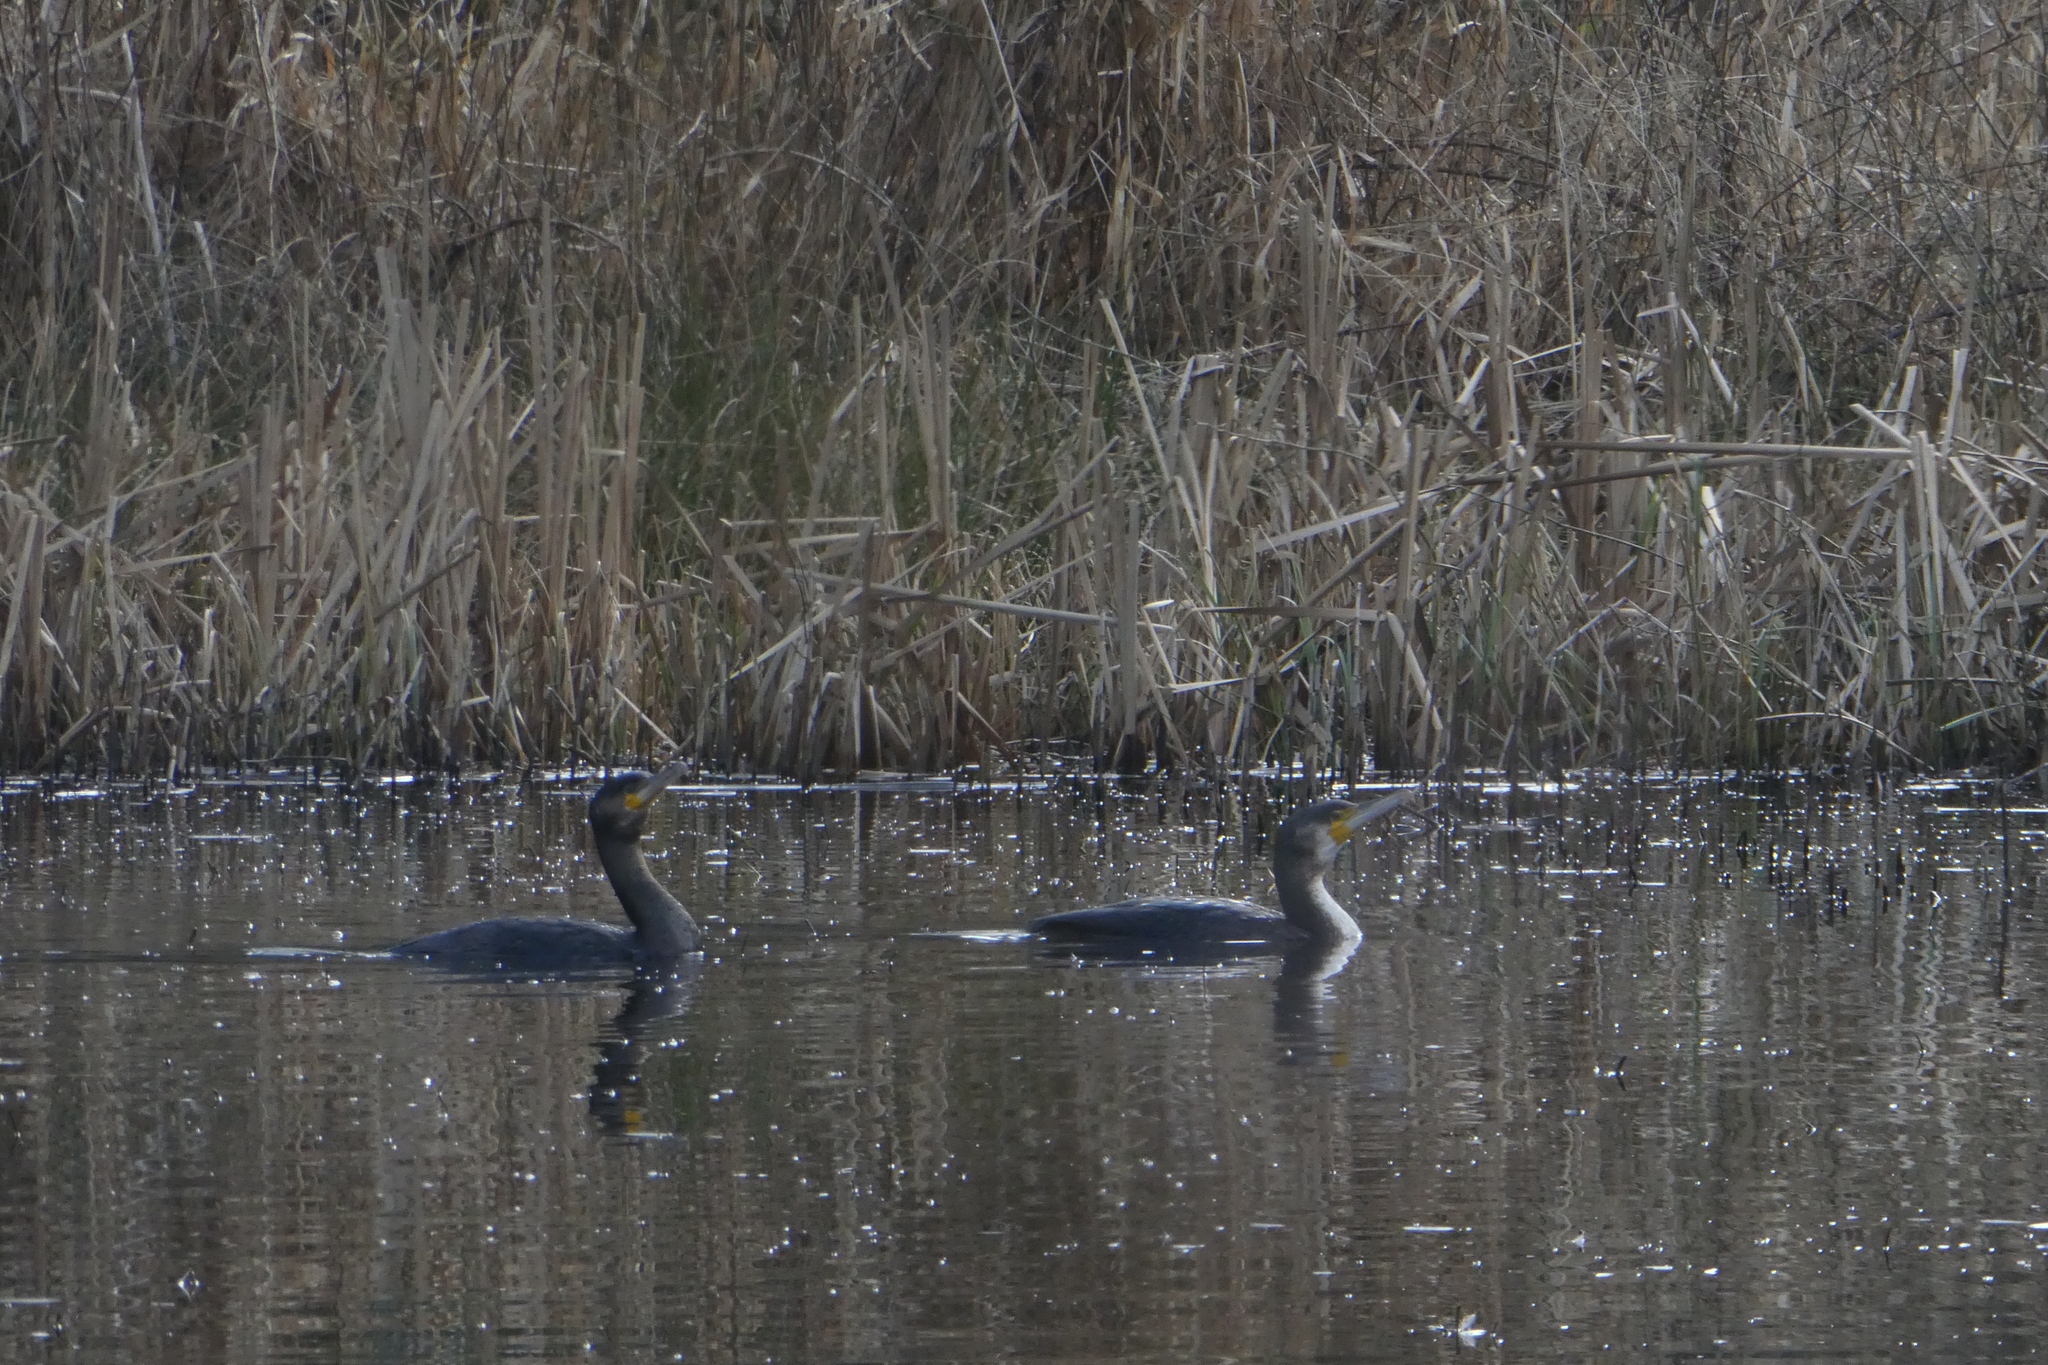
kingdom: Animalia
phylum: Chordata
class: Aves
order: Suliformes
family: Phalacrocoracidae
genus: Phalacrocorax
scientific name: Phalacrocorax carbo
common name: Great cormorant
